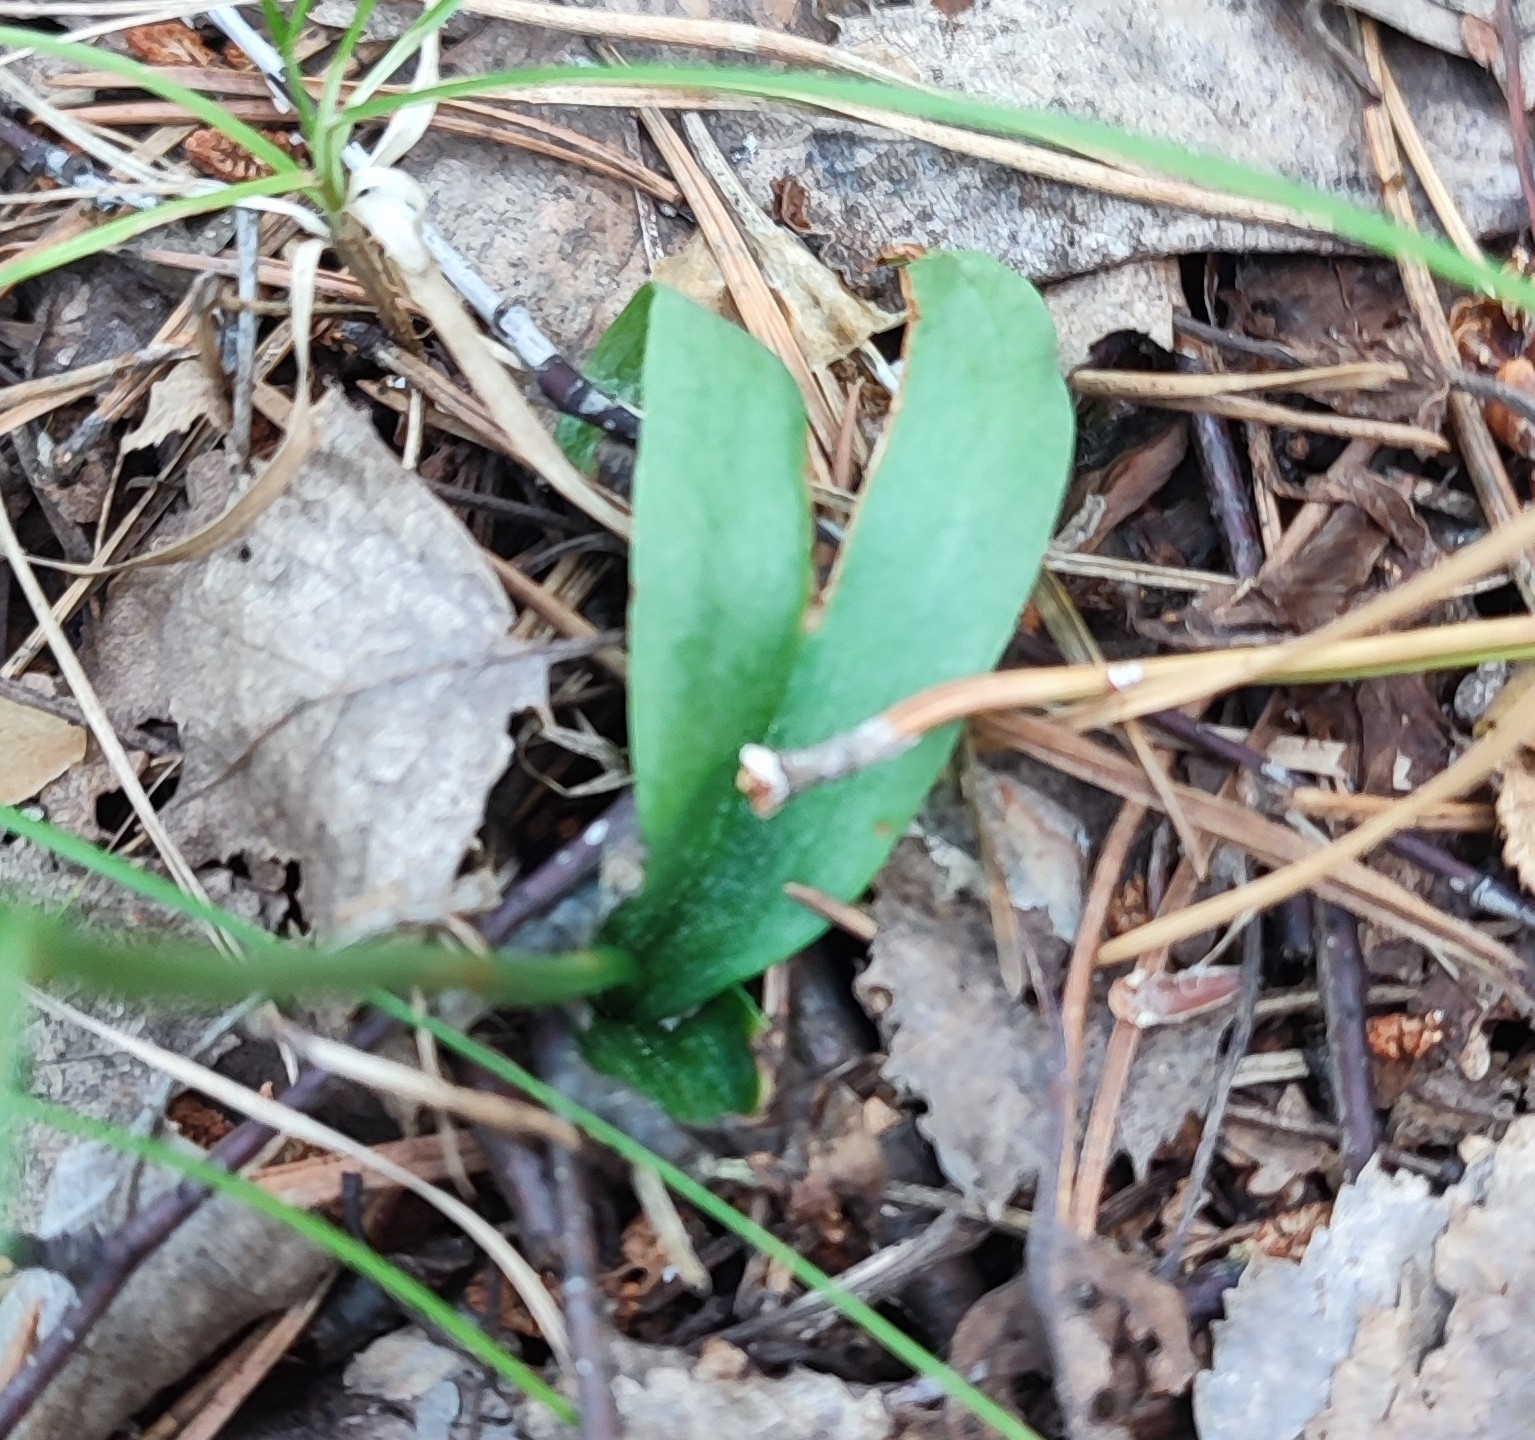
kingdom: Plantae
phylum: Tracheophyta
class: Liliopsida
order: Asparagales
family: Orchidaceae
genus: Hemipilia
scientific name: Hemipilia cucullata
